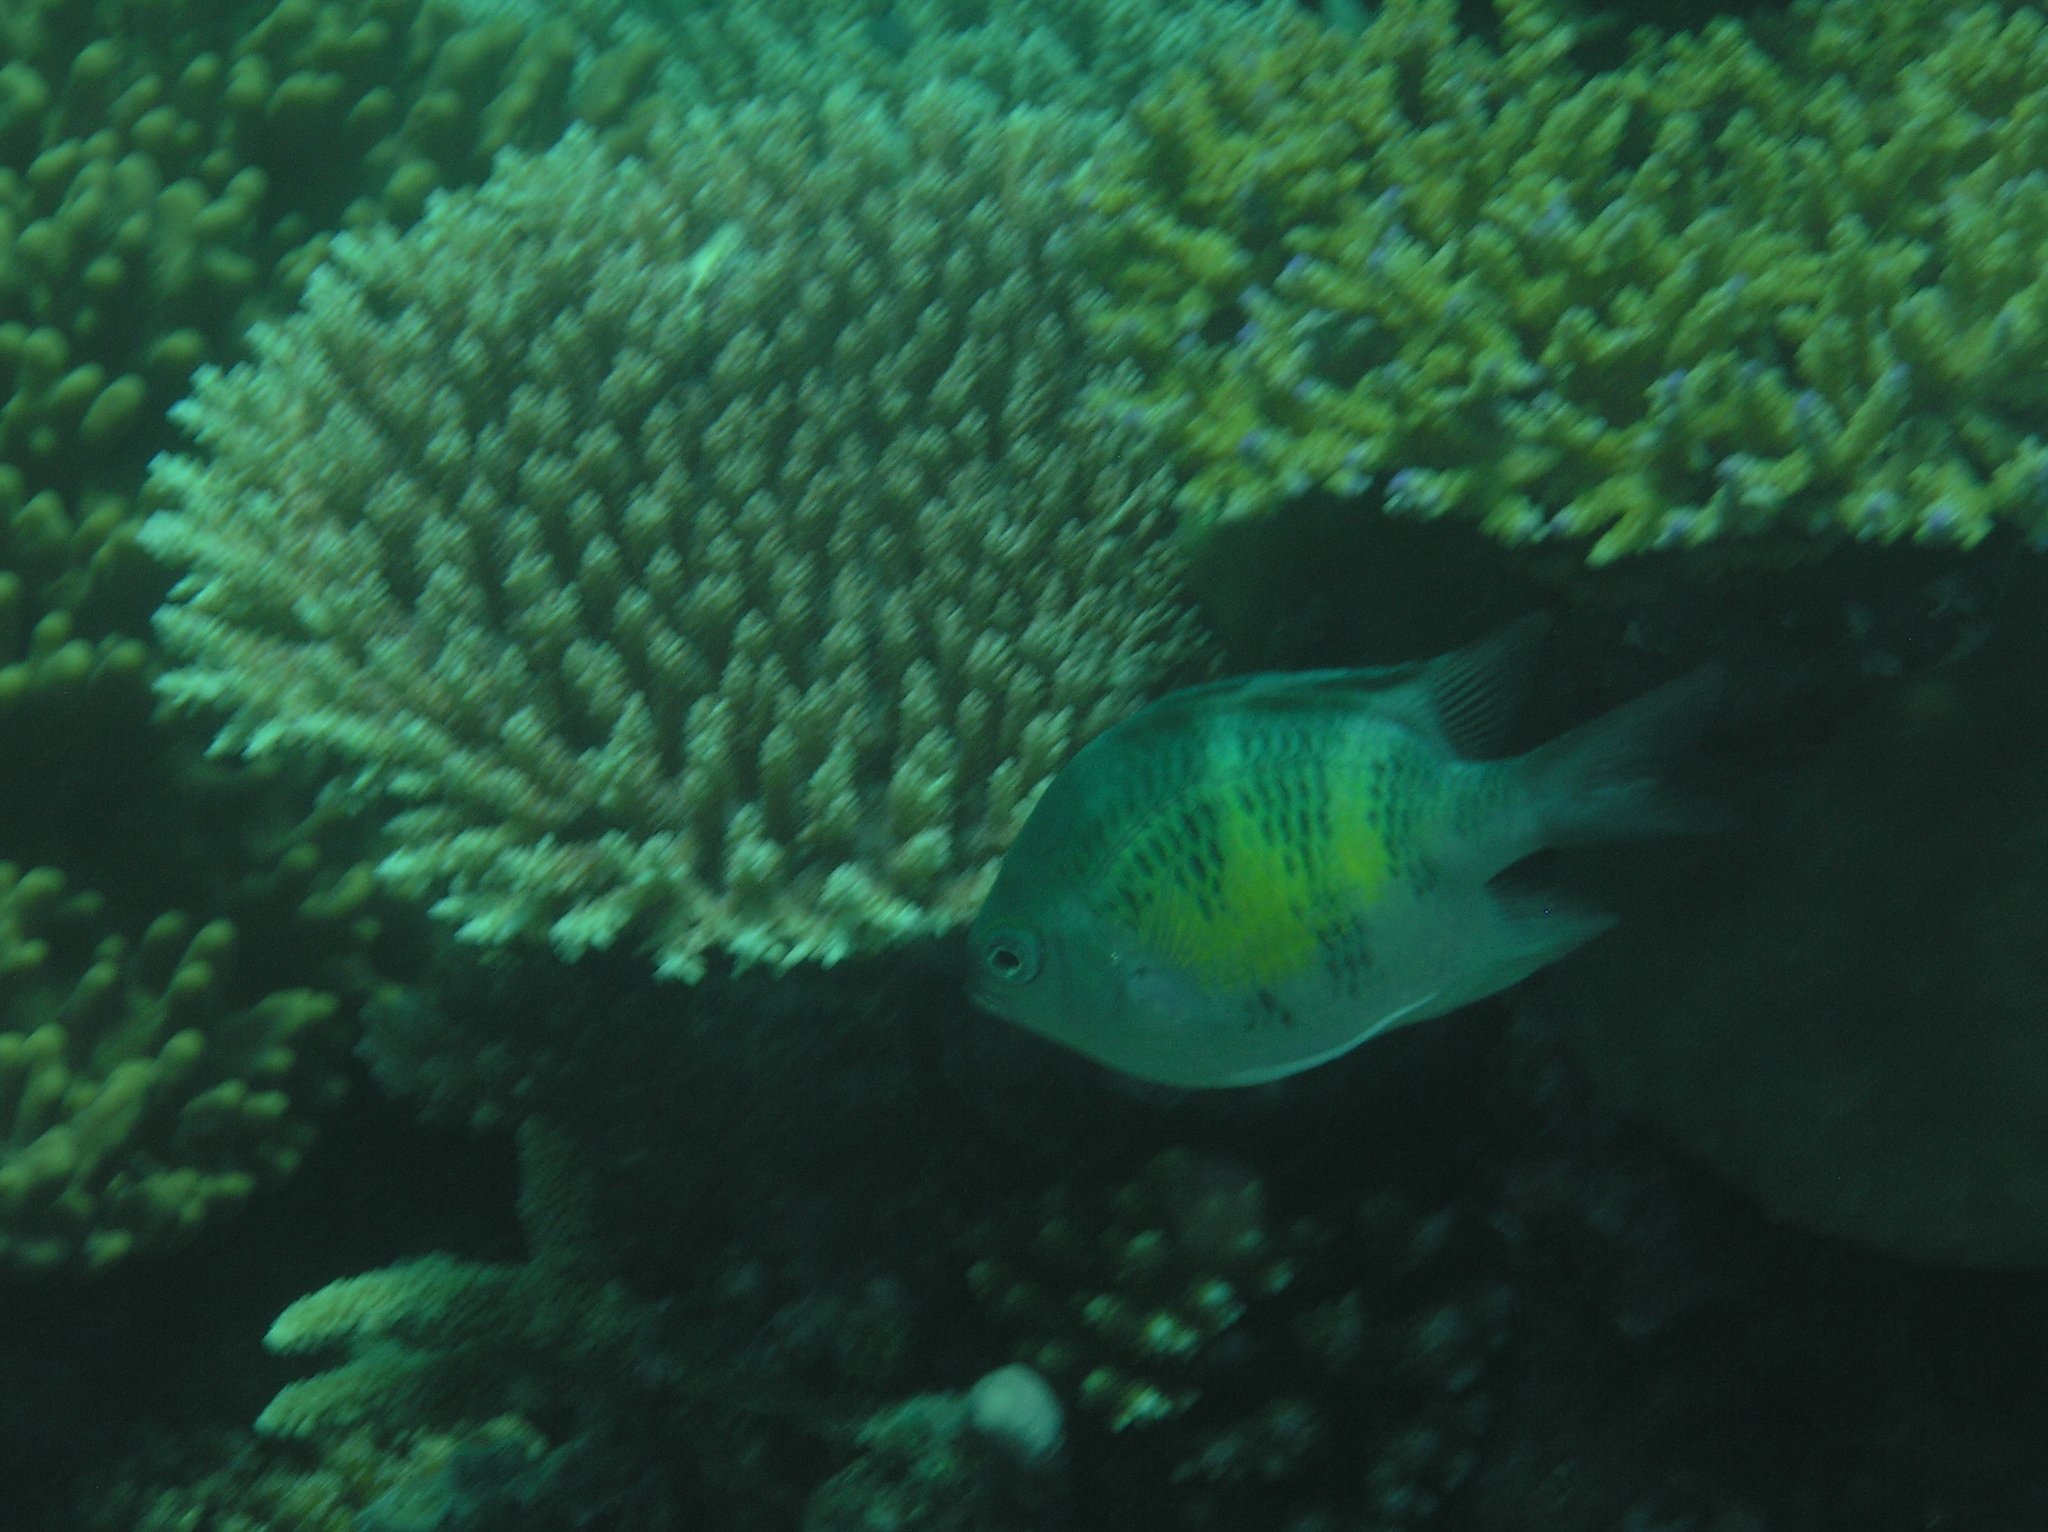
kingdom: Animalia
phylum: Chordata
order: Perciformes
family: Pomacentridae
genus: Amblyglyphidodon
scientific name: Amblyglyphidodon curacao
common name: Staghorn damsel
